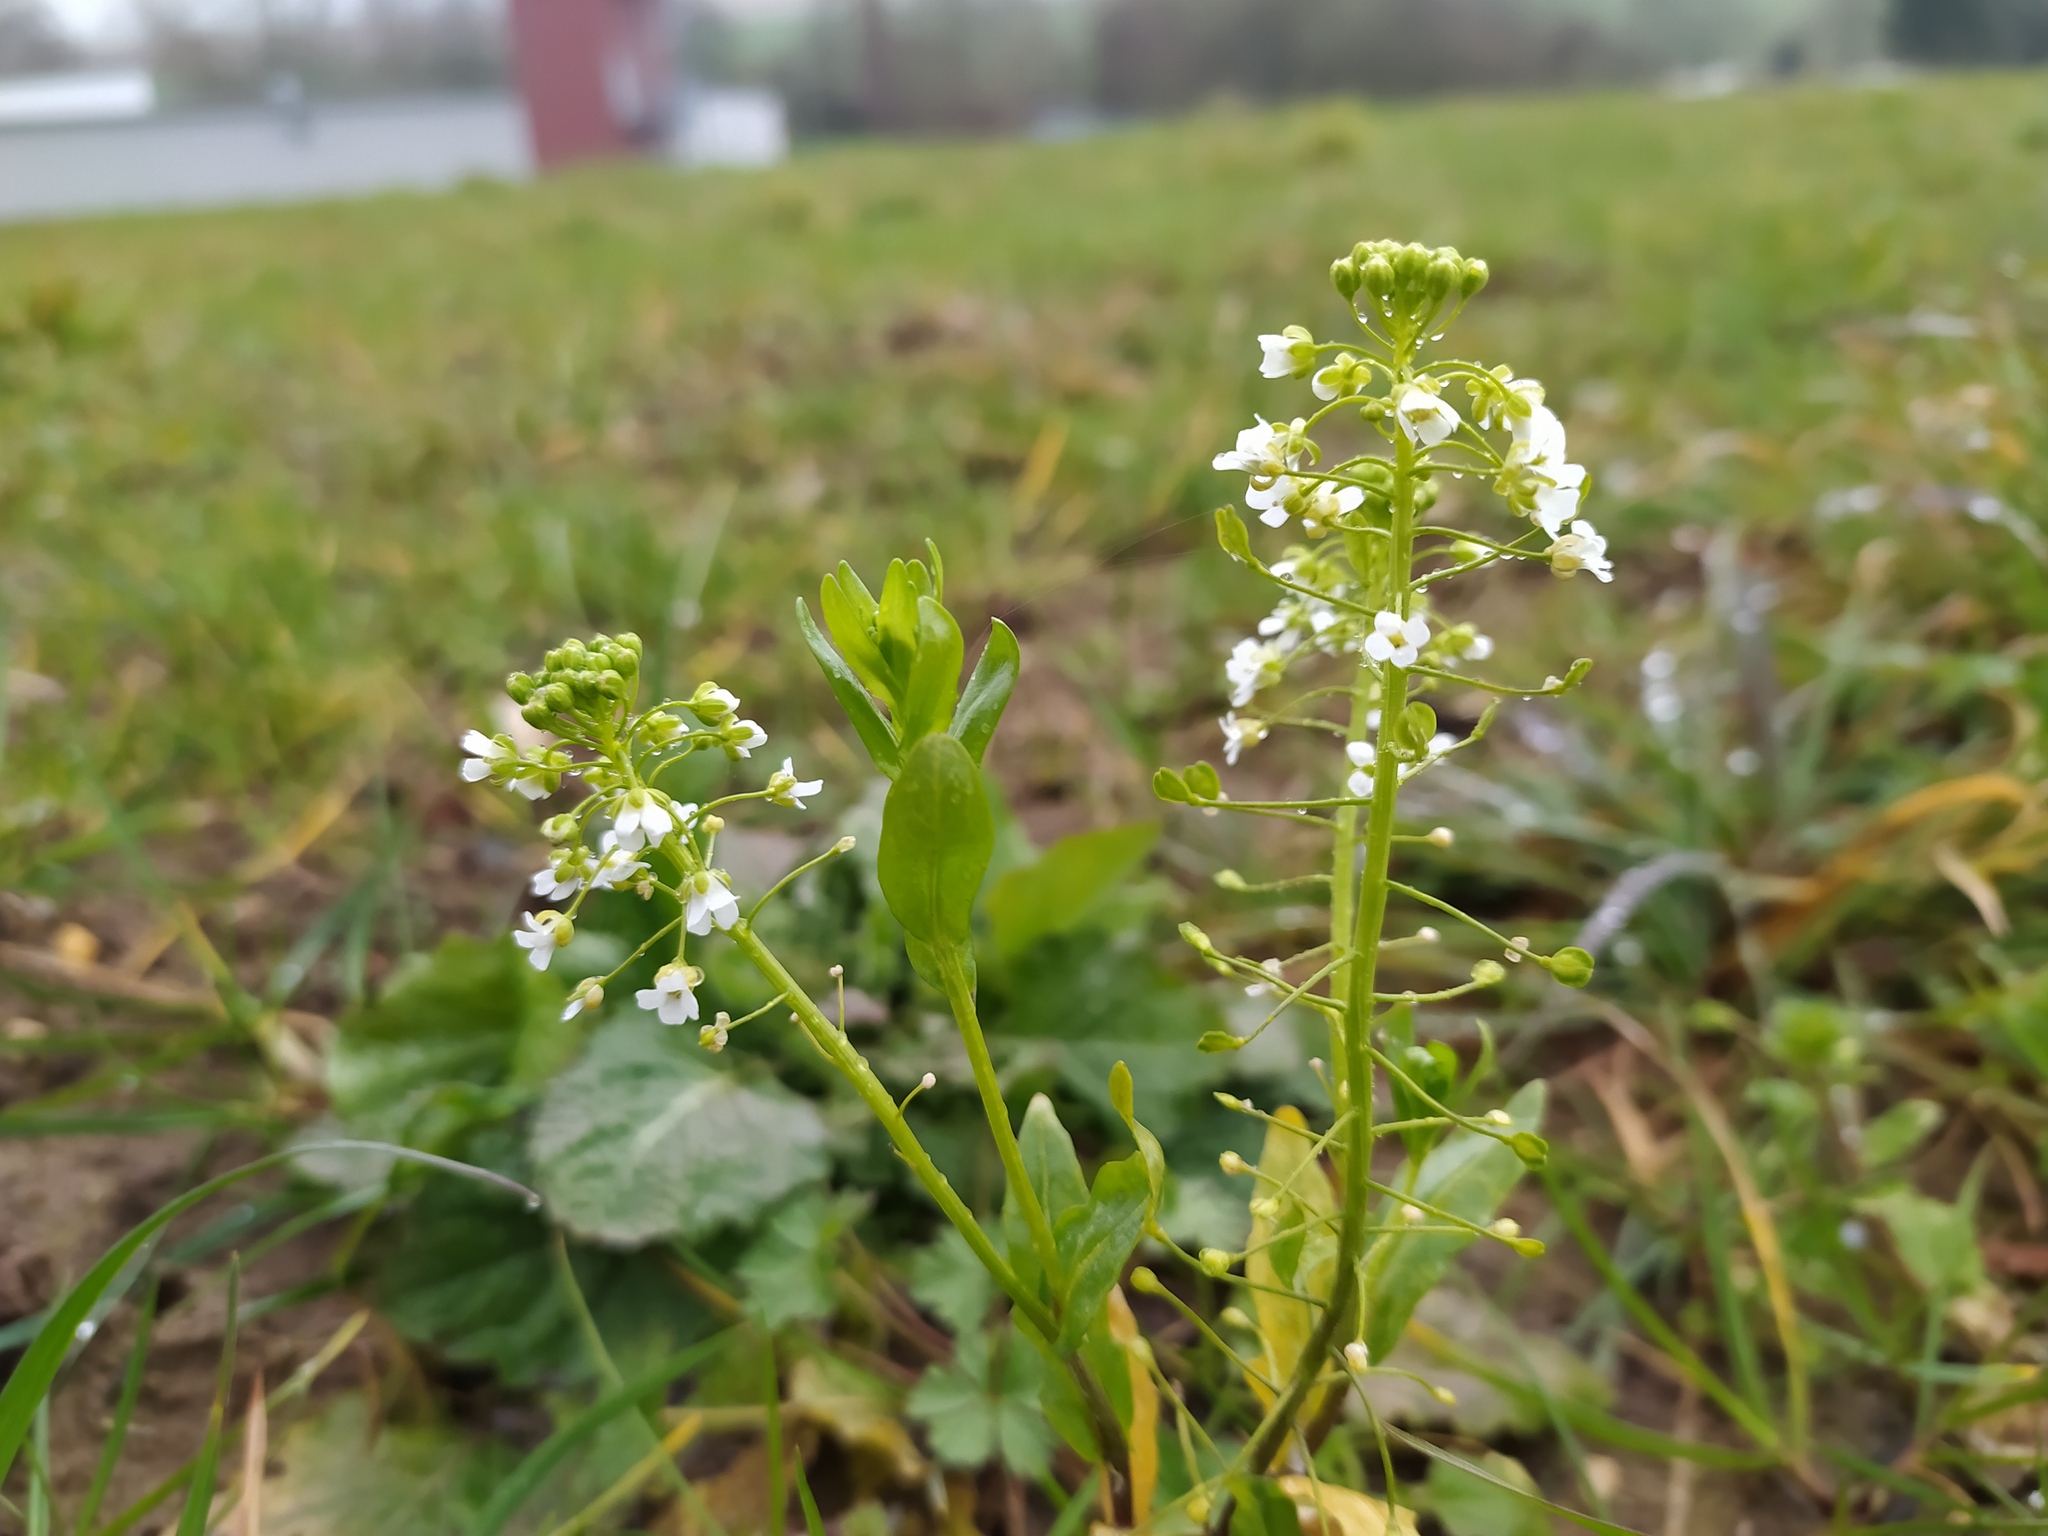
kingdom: Plantae
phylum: Tracheophyta
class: Magnoliopsida
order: Brassicales
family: Brassicaceae
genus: Thlaspi
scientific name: Thlaspi arvense
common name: Field pennycress
